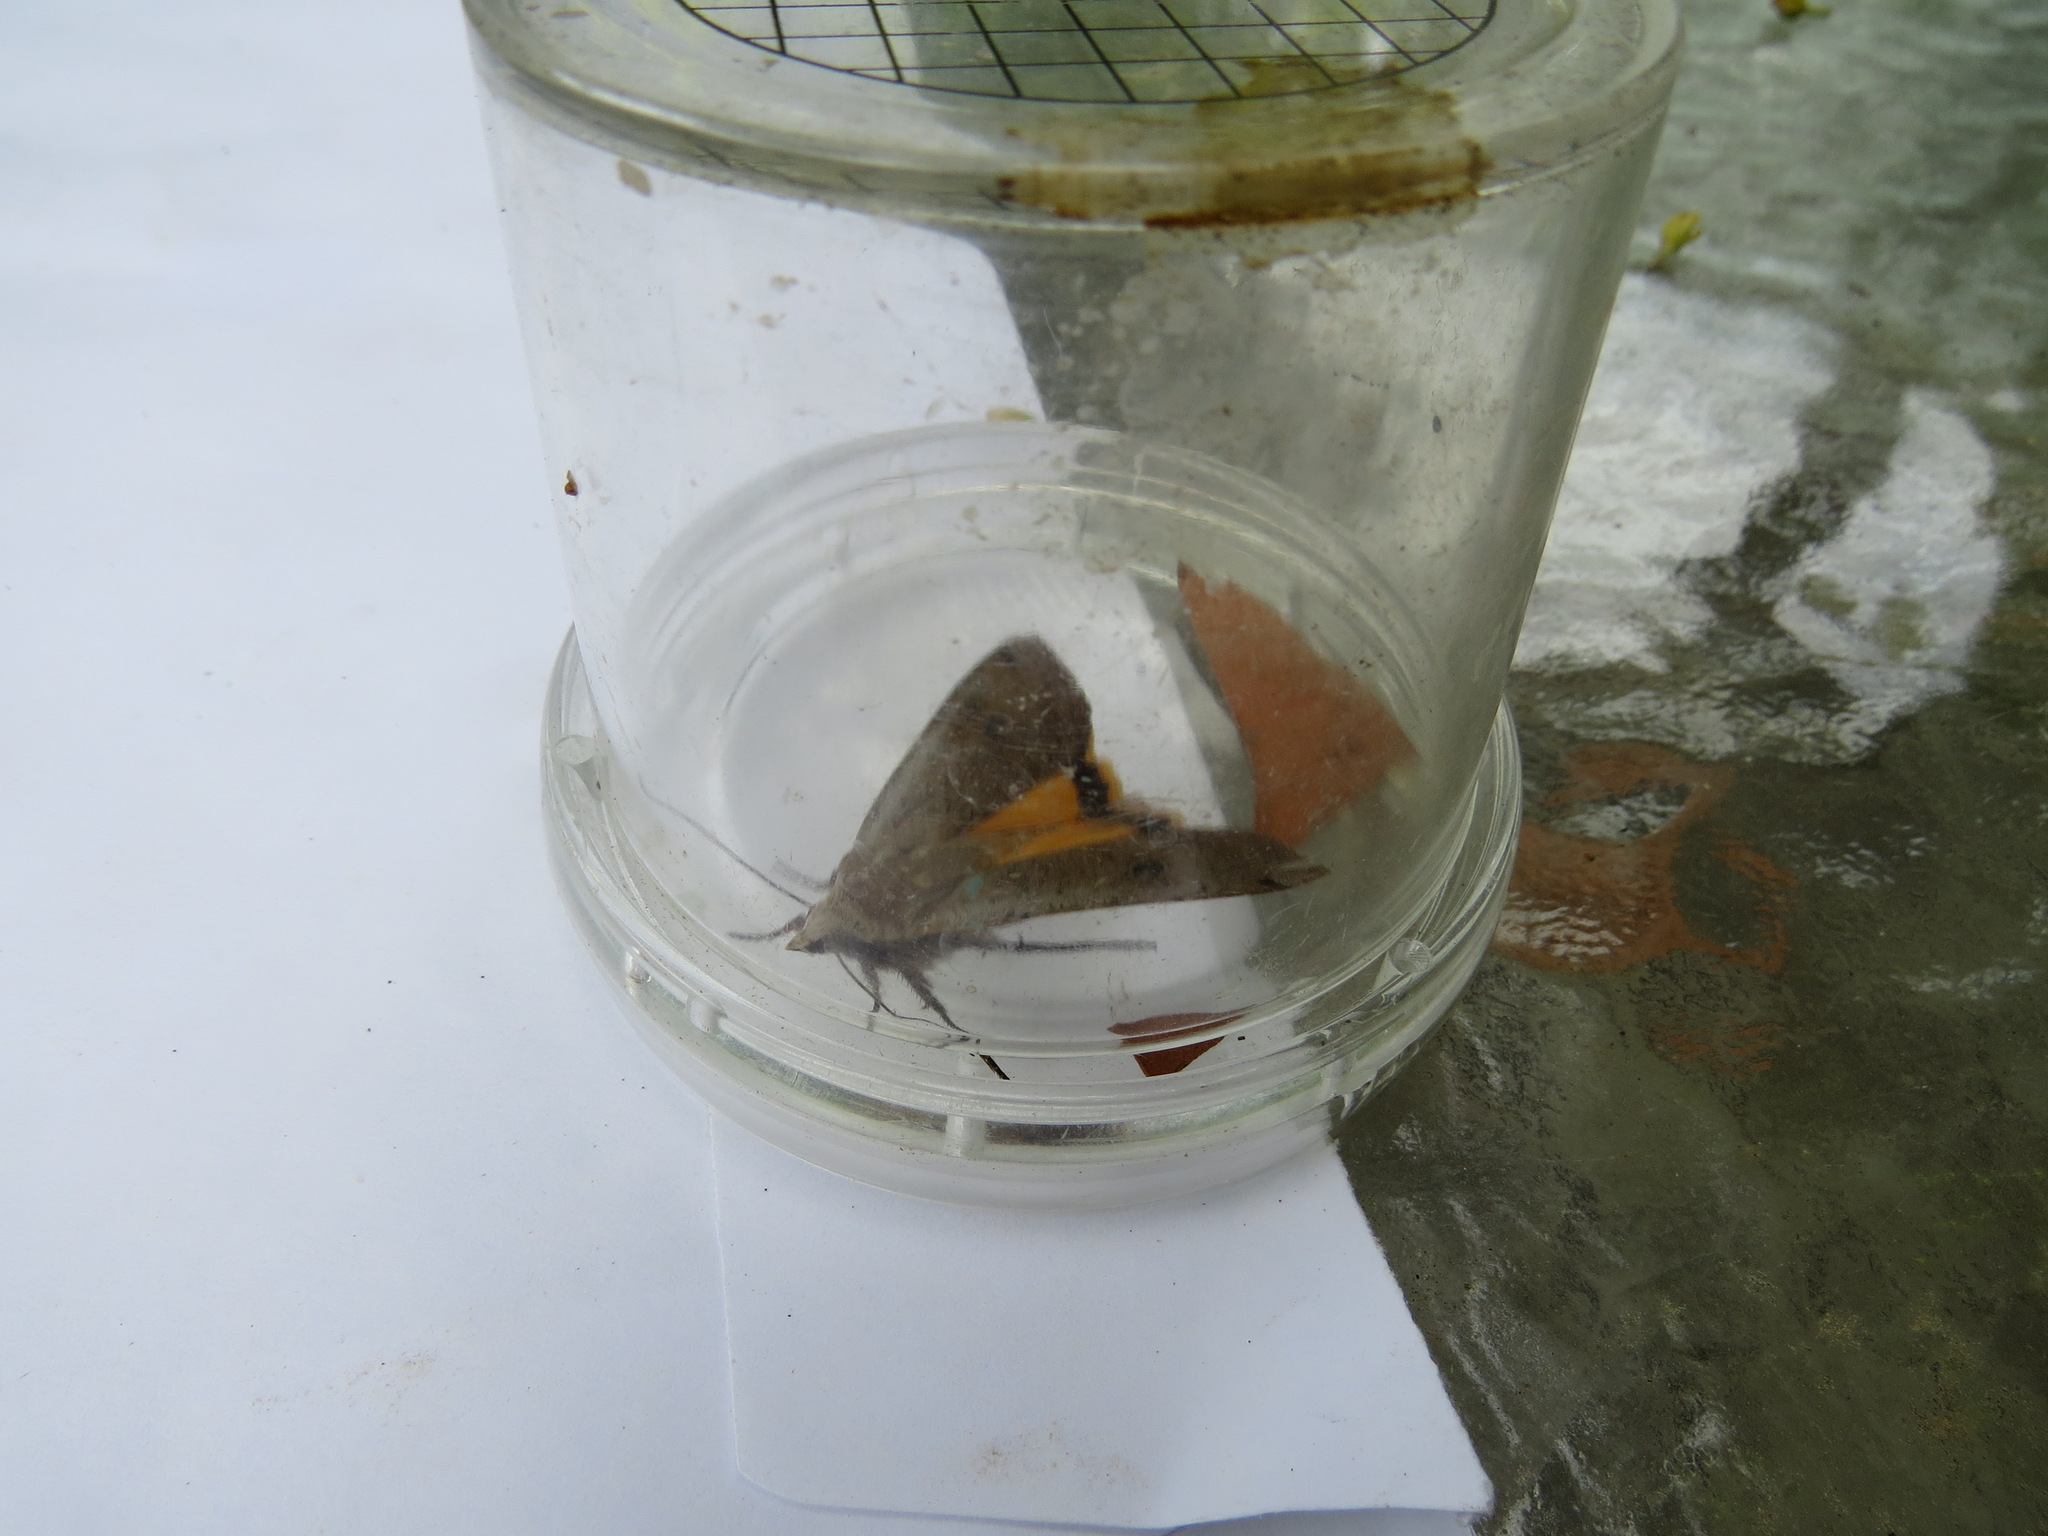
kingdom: Animalia
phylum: Arthropoda
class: Insecta
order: Lepidoptera
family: Noctuidae
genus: Noctua
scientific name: Noctua pronuba
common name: Large yellow underwing
